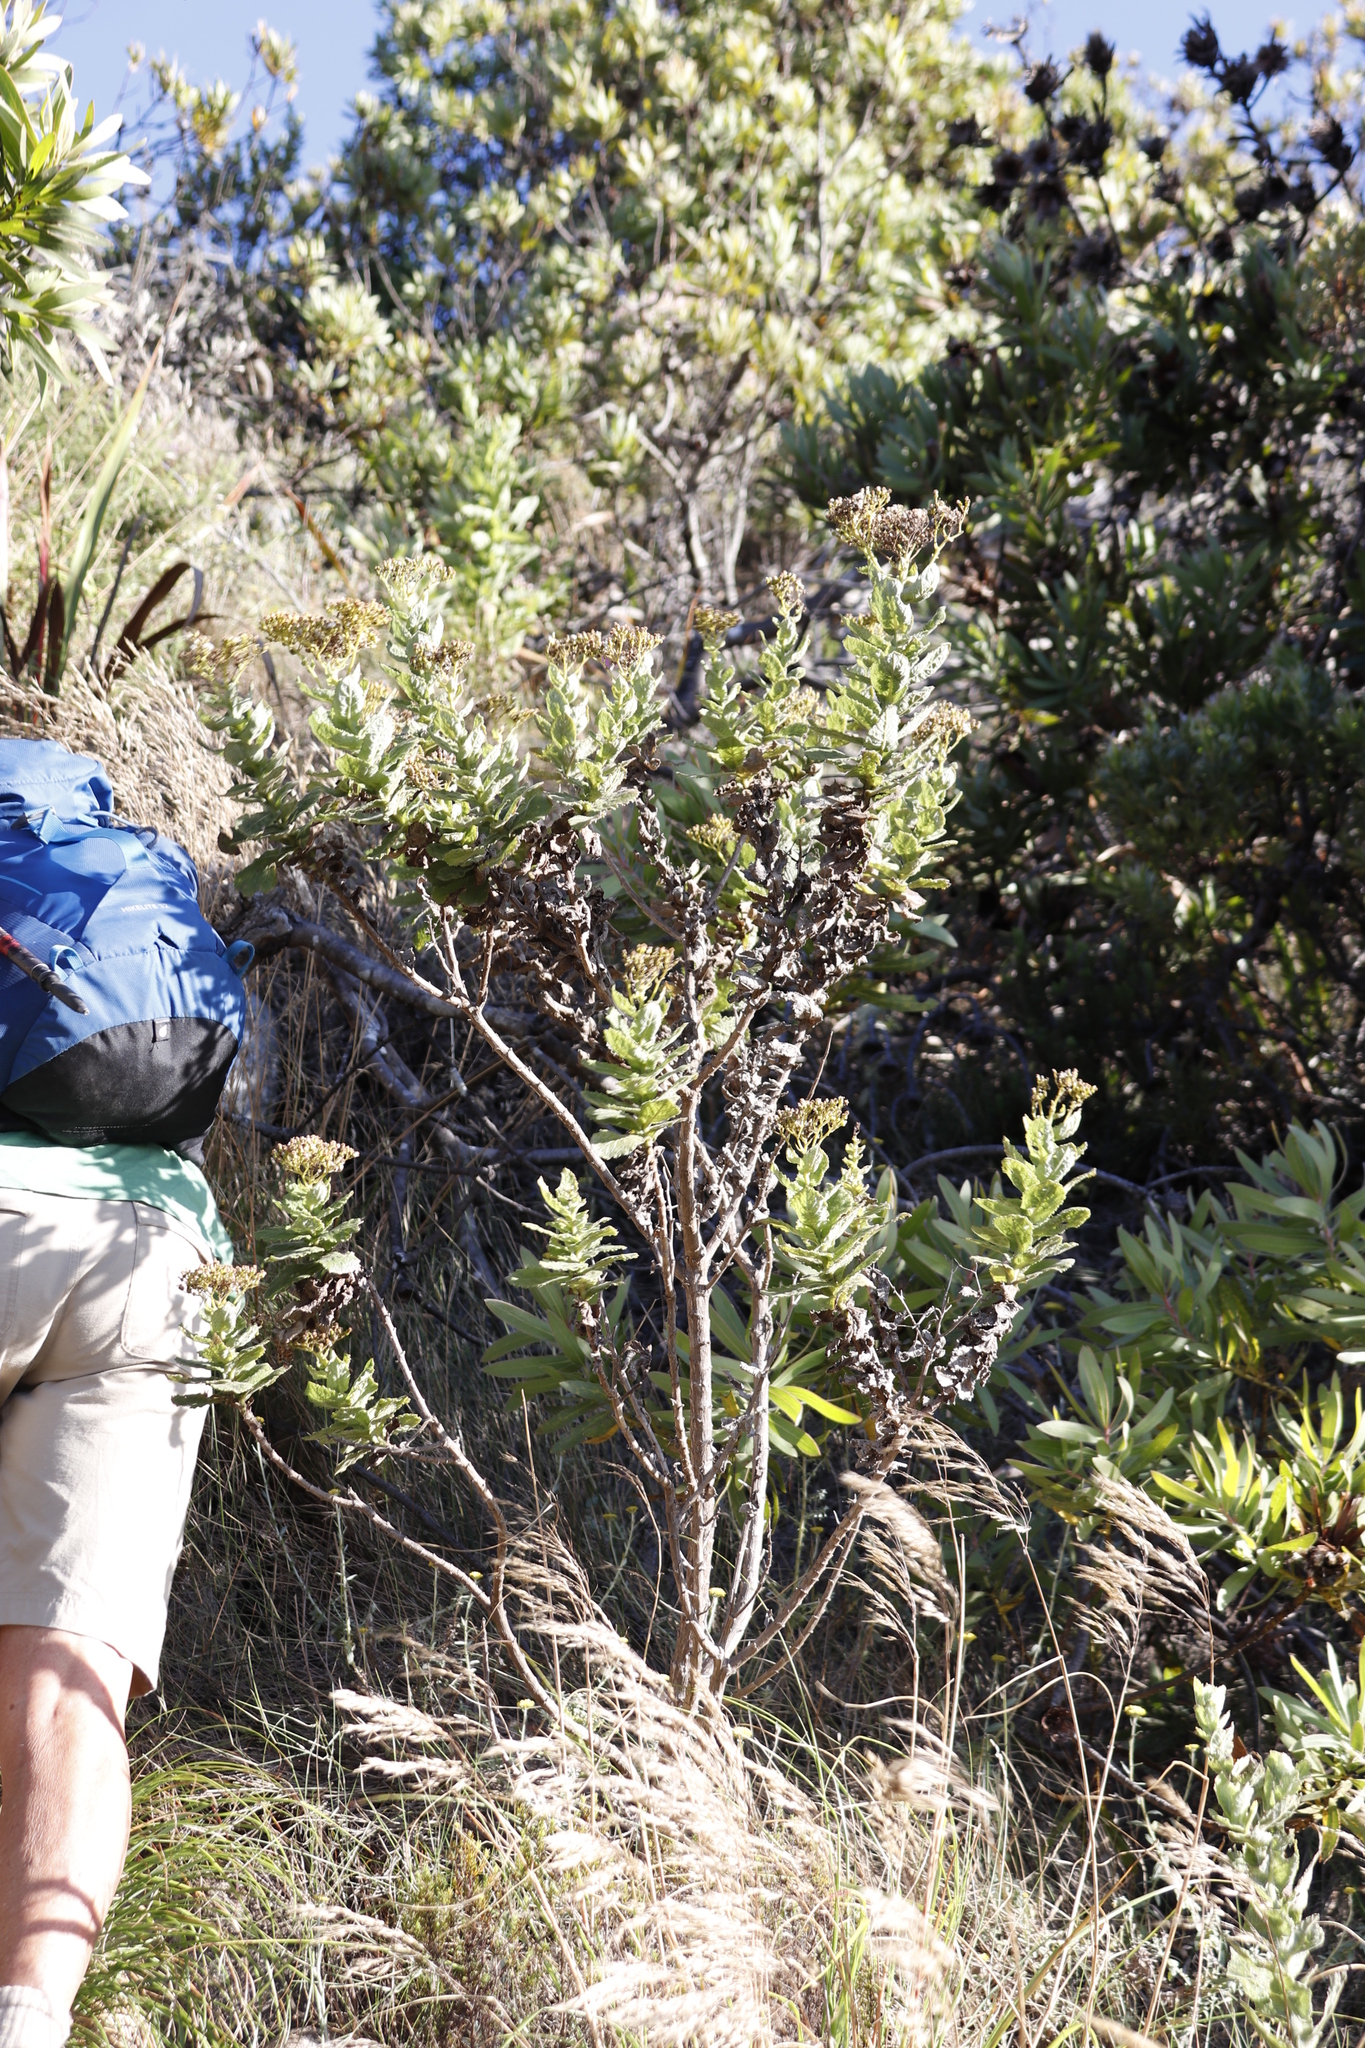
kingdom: Plantae
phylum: Tracheophyta
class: Magnoliopsida
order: Asterales
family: Asteraceae
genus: Senecio
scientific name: Senecio rigidus
